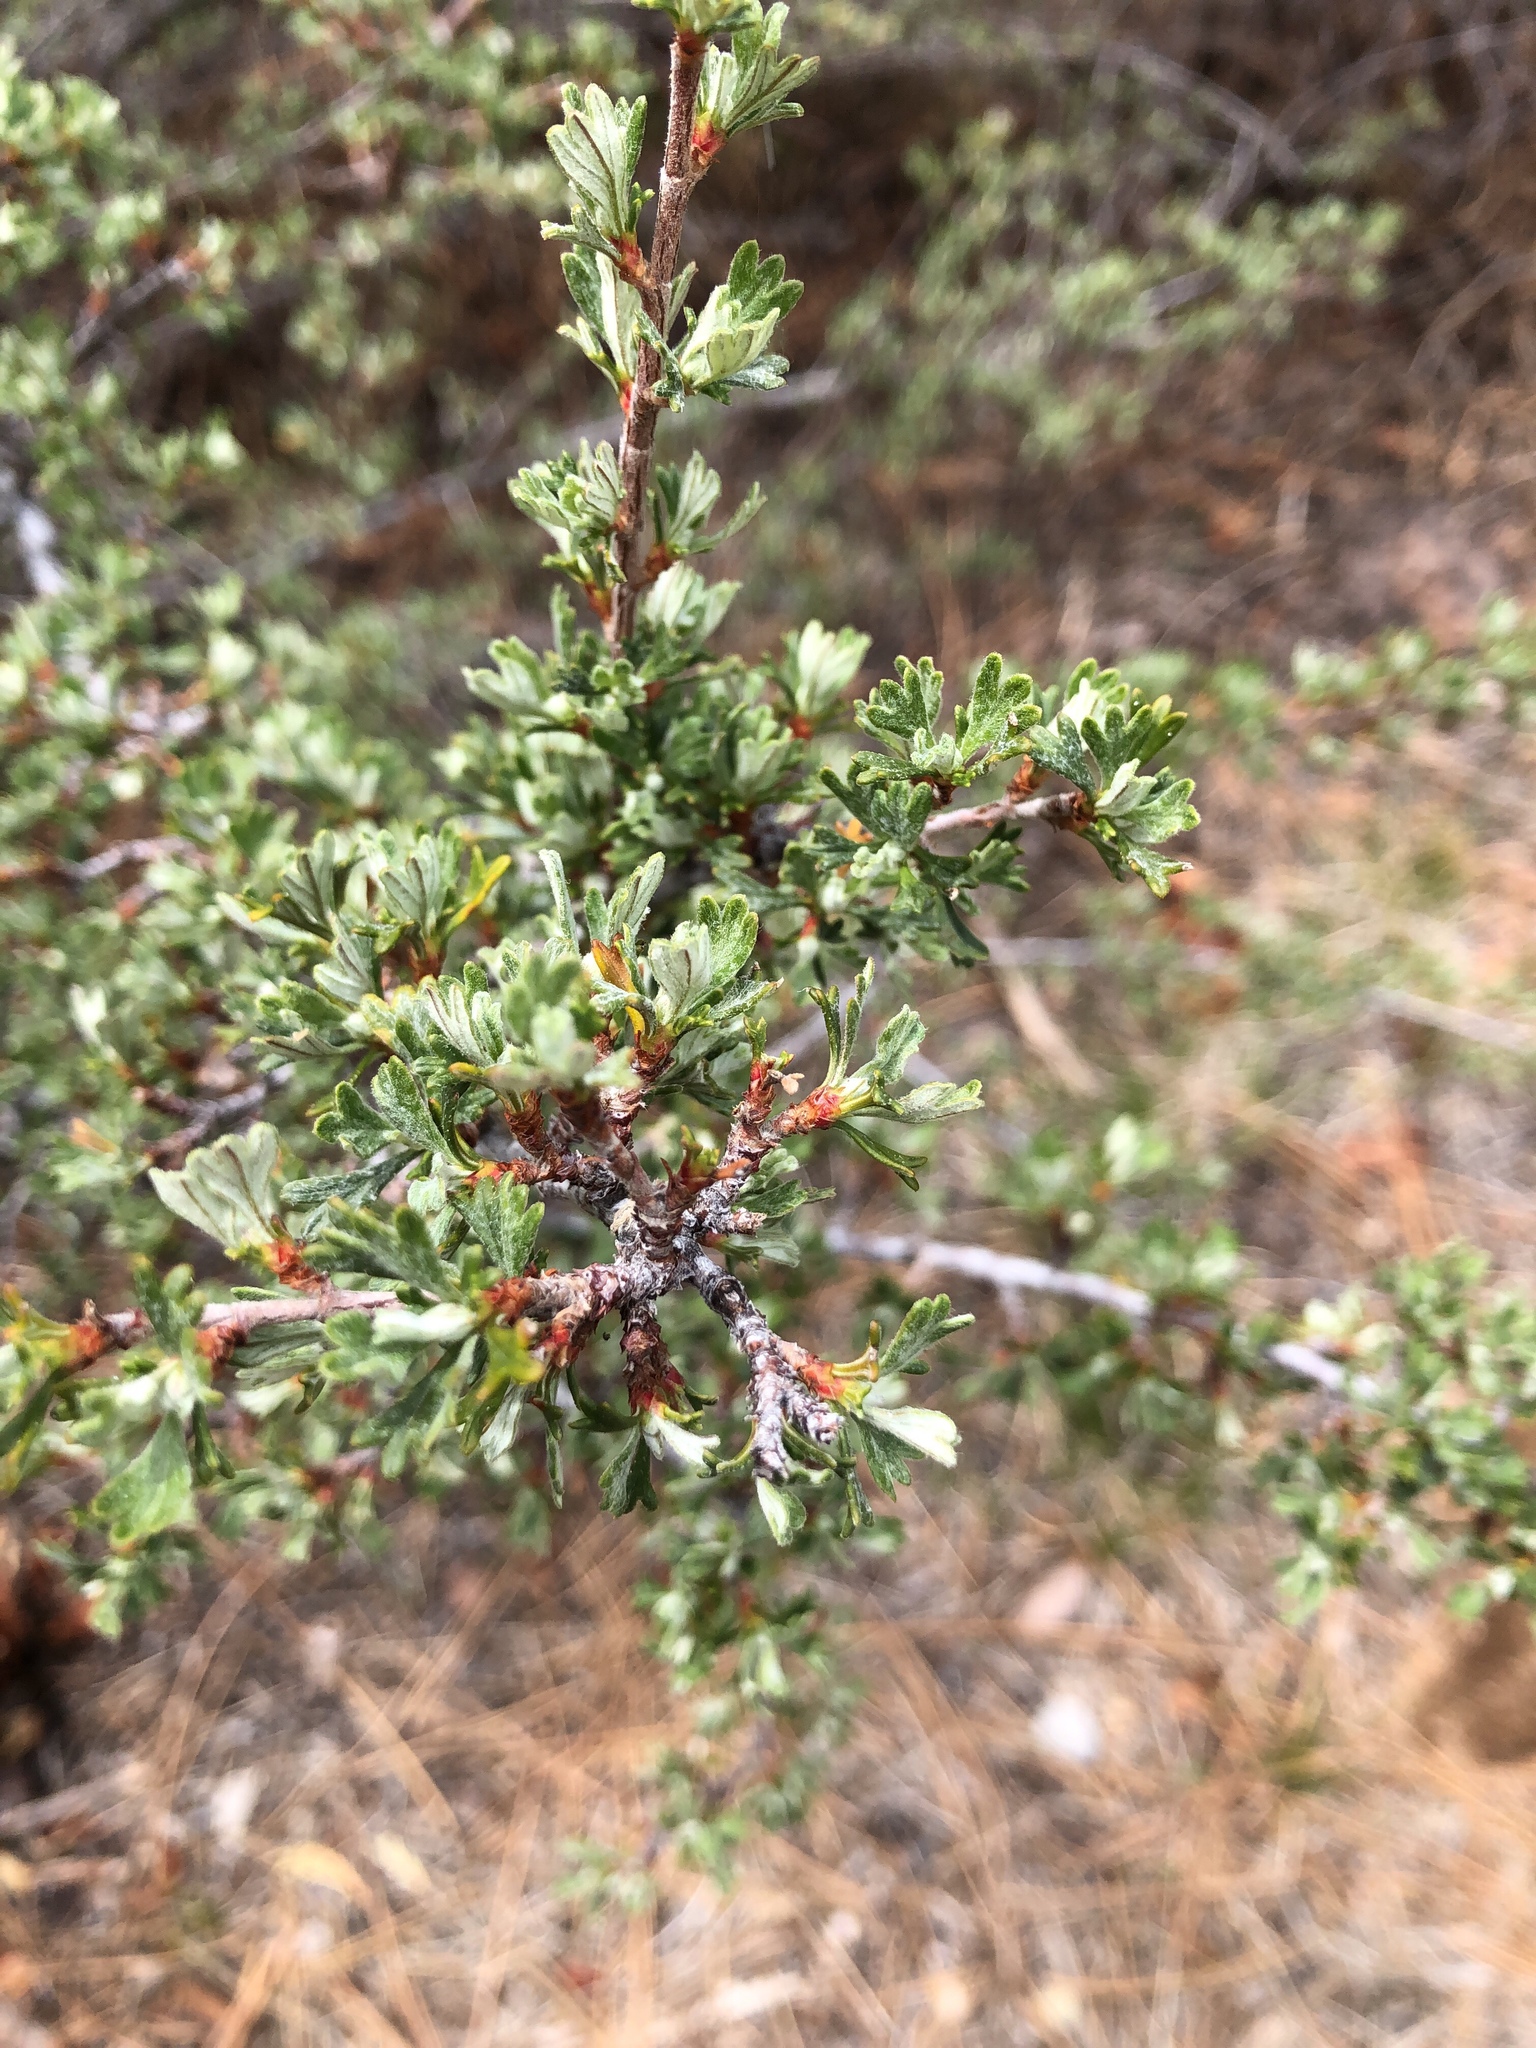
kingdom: Plantae
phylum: Tracheophyta
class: Magnoliopsida
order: Rosales
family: Rosaceae
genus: Purshia
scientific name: Purshia tridentata
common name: Antelope bitterbrush
